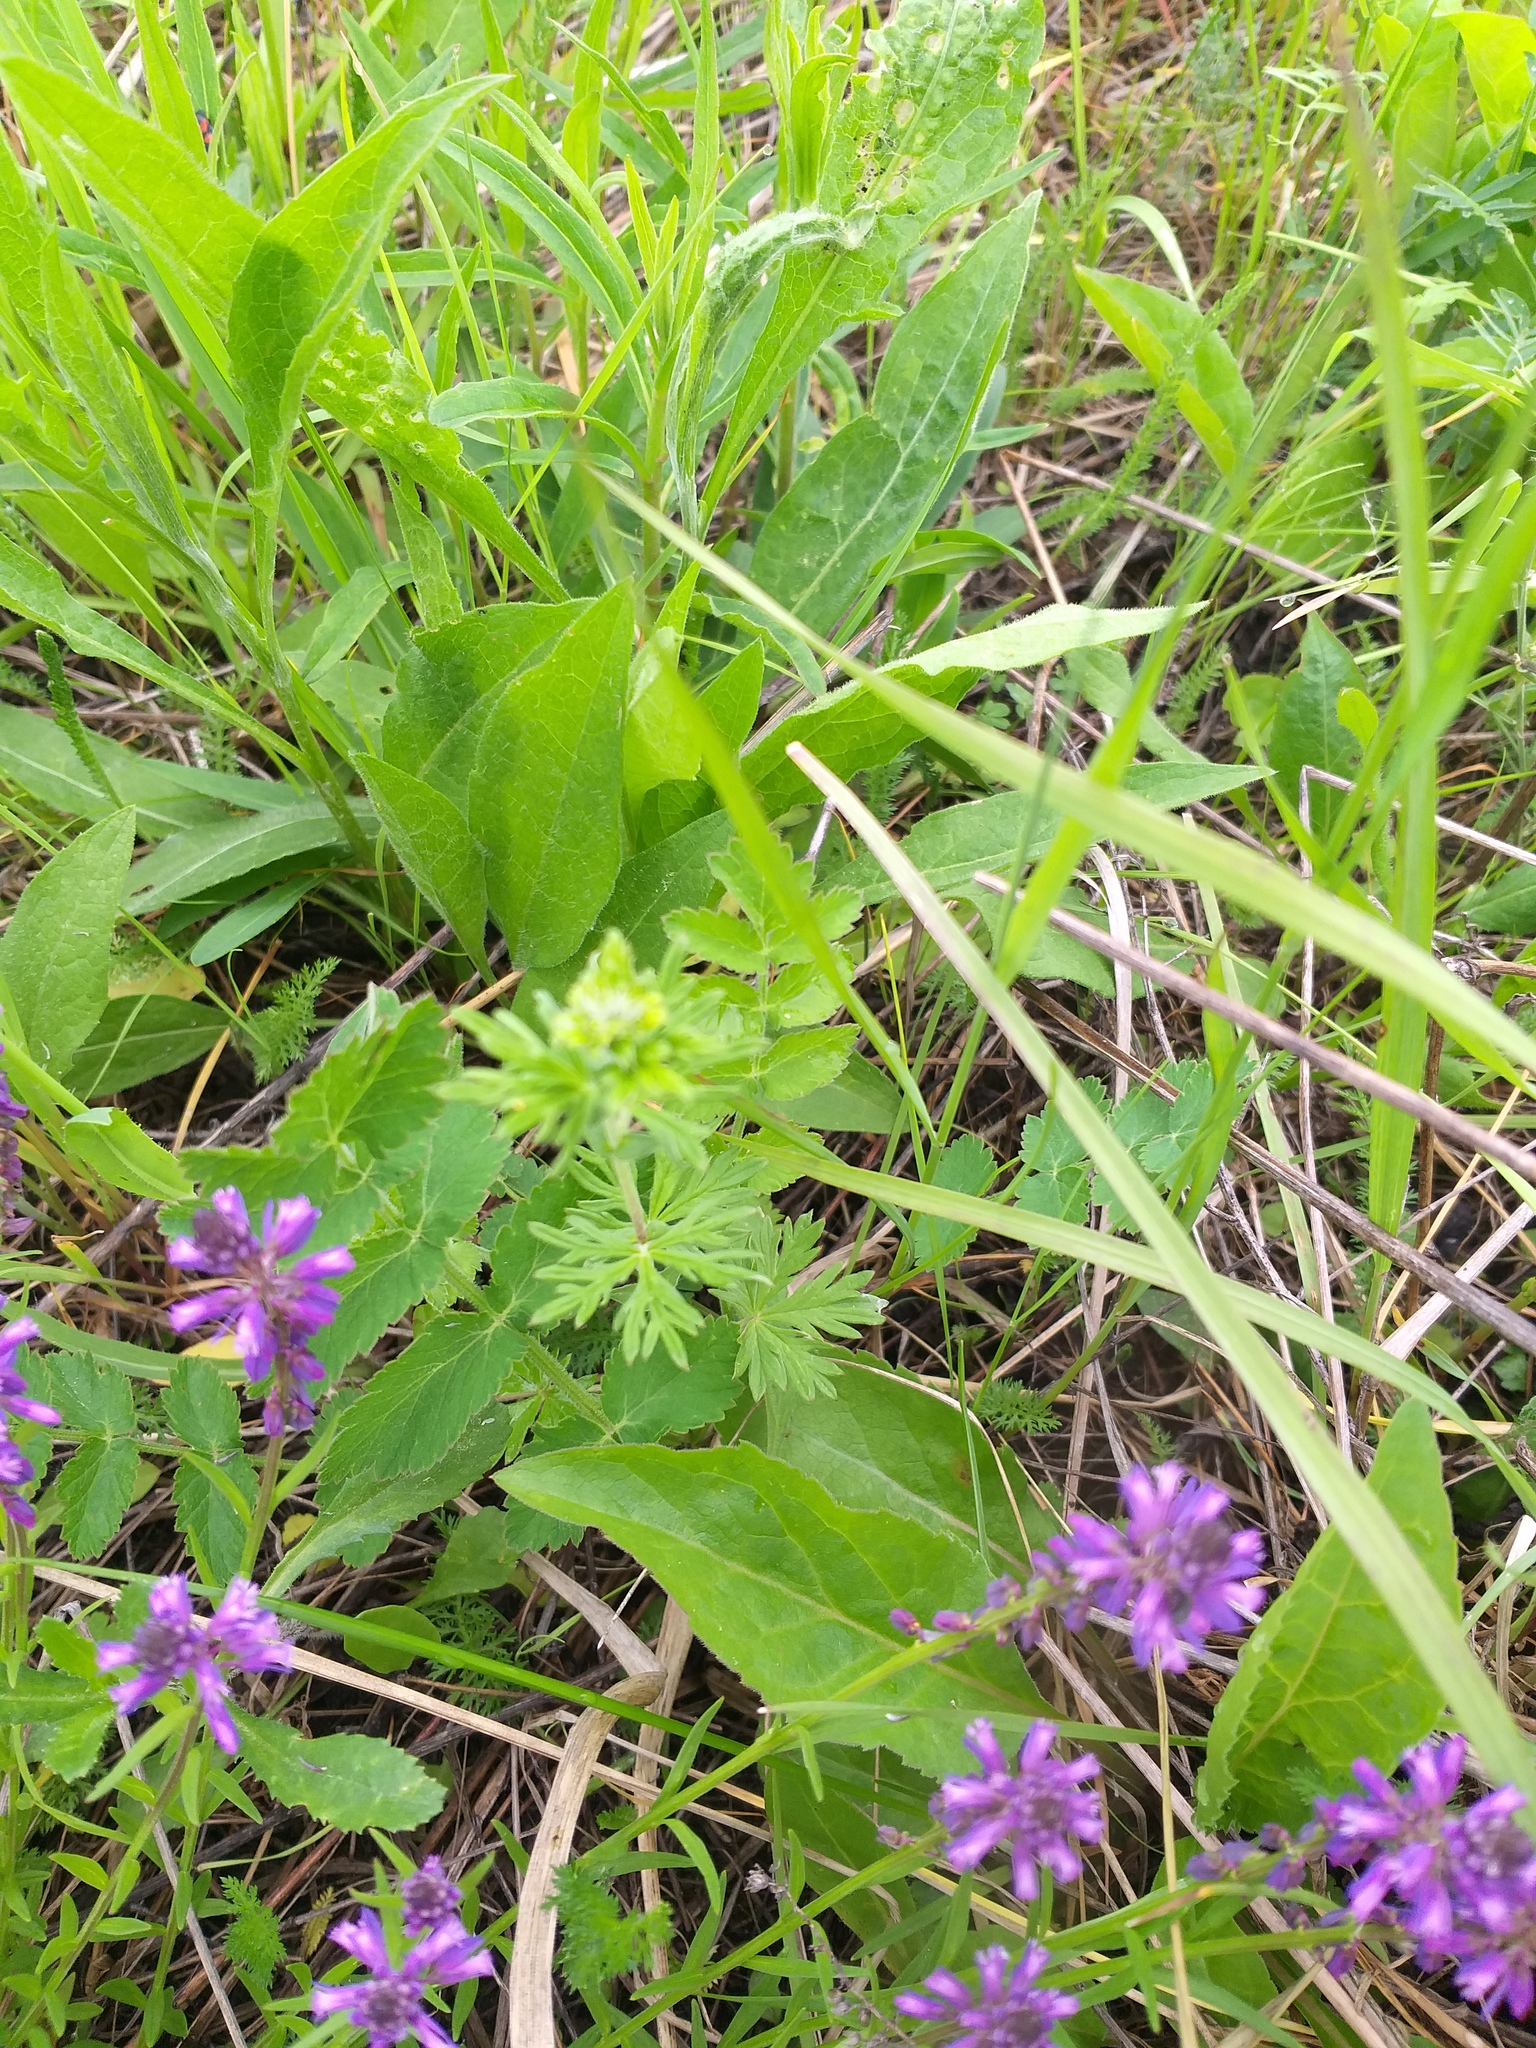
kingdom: Plantae
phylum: Tracheophyta
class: Magnoliopsida
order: Rosales
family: Rosaceae
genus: Potentilla
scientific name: Potentilla argentea
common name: Hoary cinquefoil
